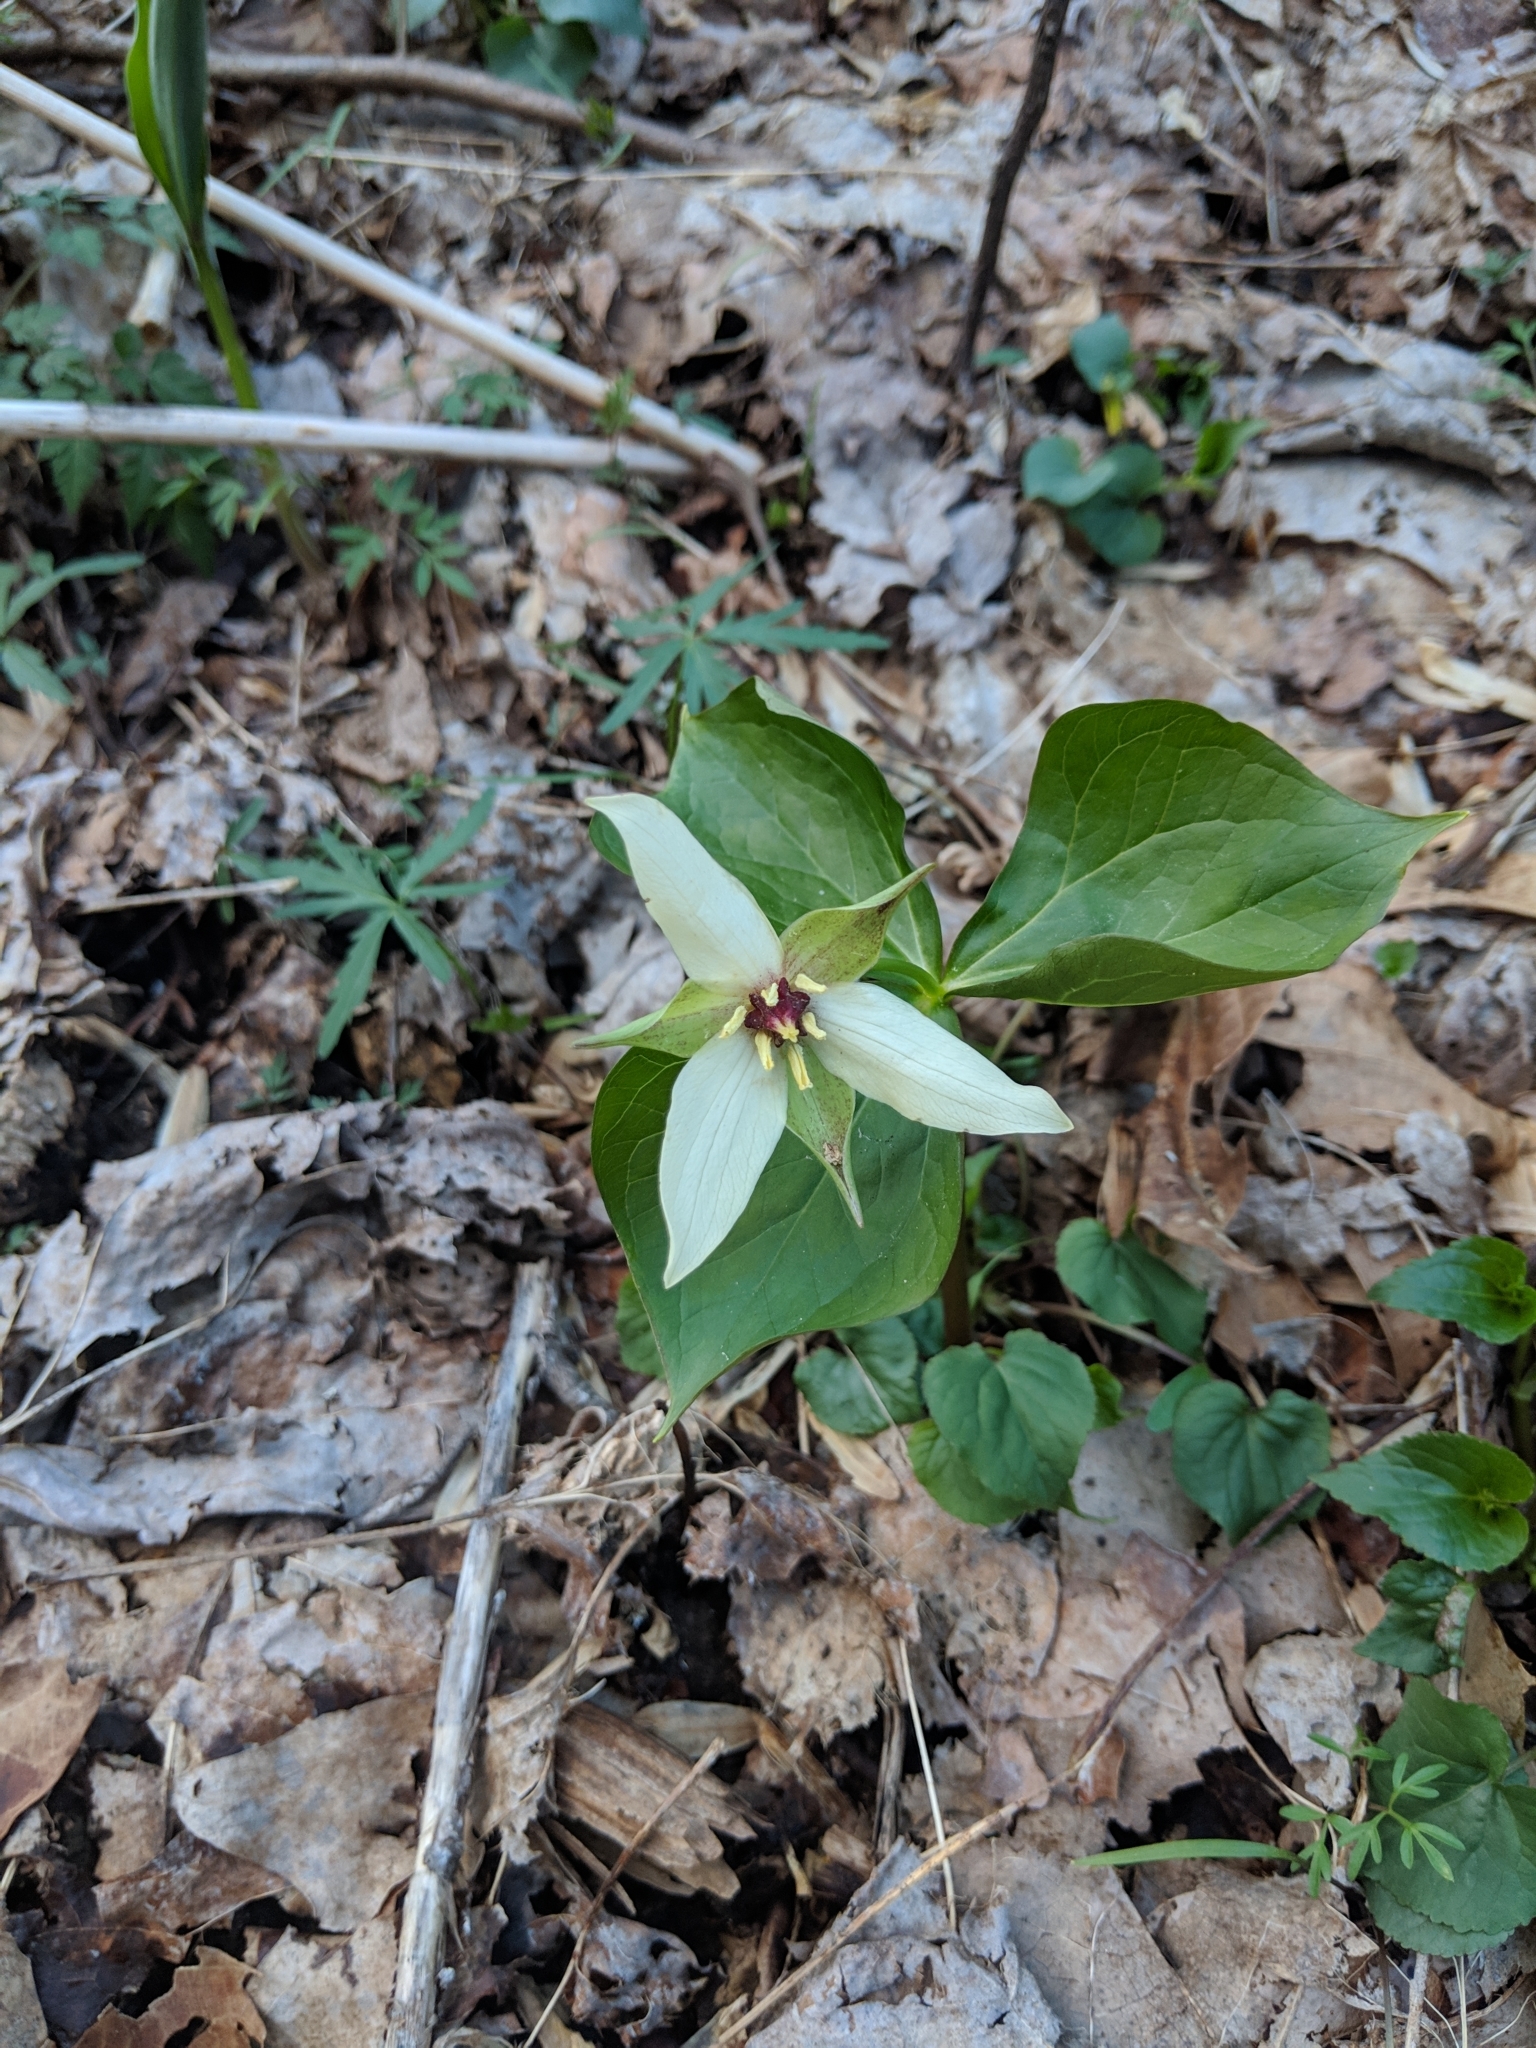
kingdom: Plantae
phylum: Tracheophyta
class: Liliopsida
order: Liliales
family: Melanthiaceae
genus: Trillium
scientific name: Trillium erectum
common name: Purple trillium
